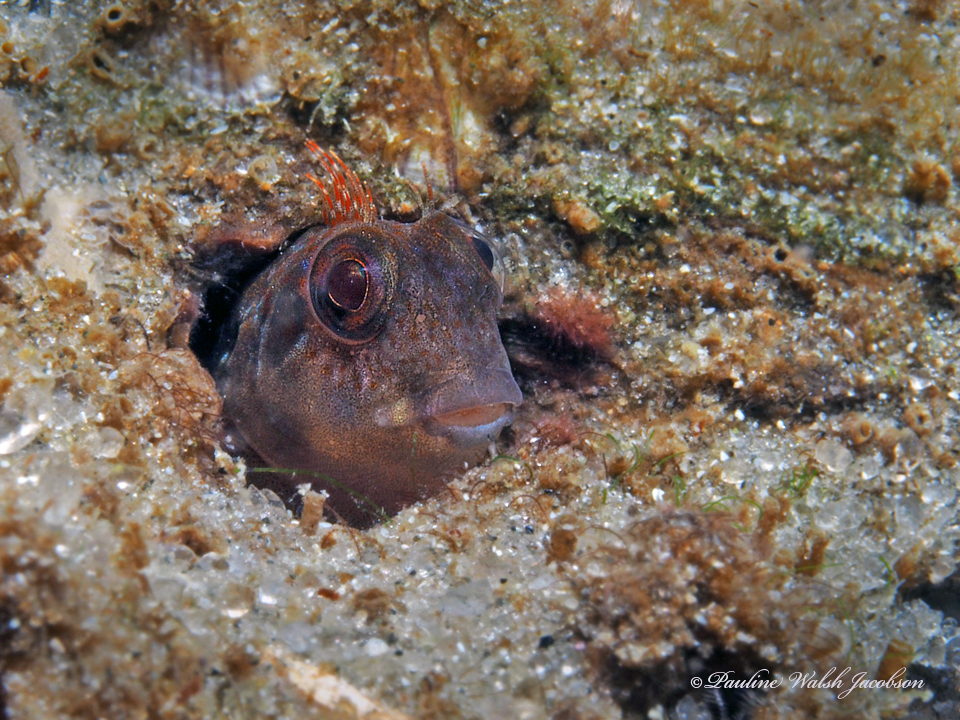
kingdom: Animalia
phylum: Chordata
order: Perciformes
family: Blenniidae
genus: Scartella
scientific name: Scartella cristata
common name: Molly miller
